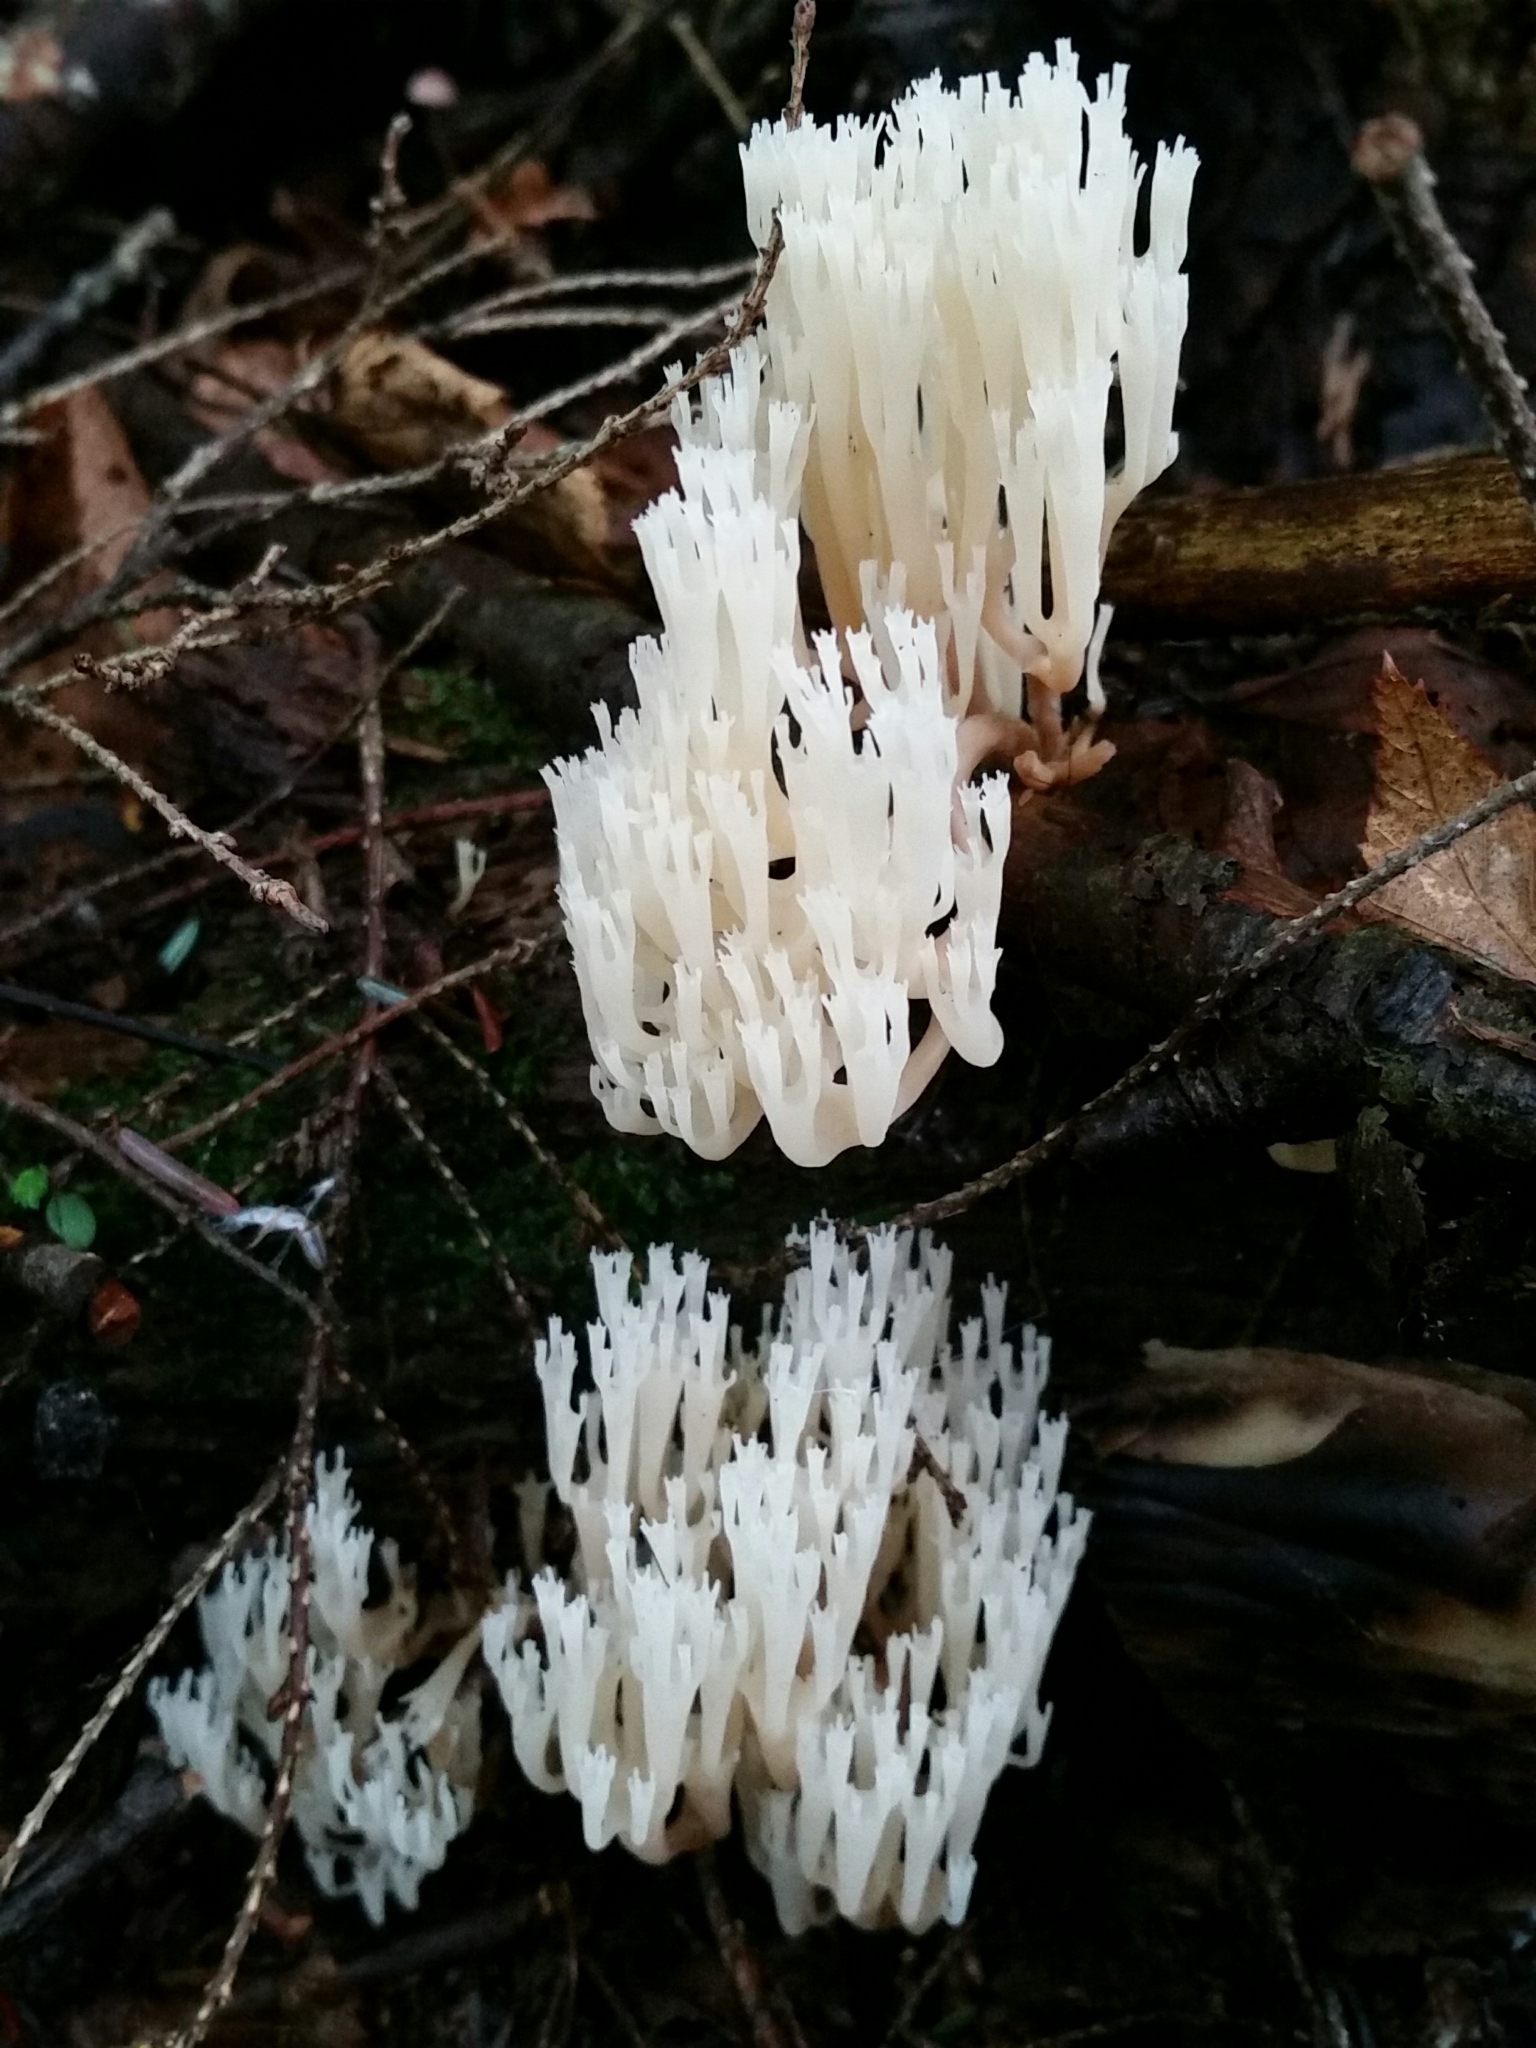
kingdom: Fungi
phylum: Basidiomycota
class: Agaricomycetes
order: Russulales
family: Auriscalpiaceae
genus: Artomyces
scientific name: Artomyces pyxidatus
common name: Crown-tipped coral fungus
